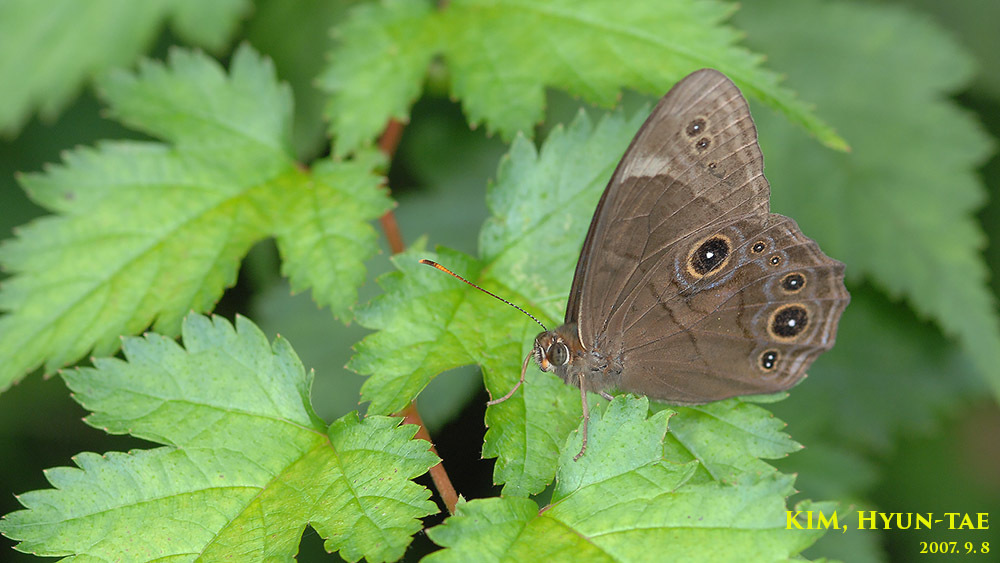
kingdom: Animalia
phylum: Arthropoda
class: Insecta
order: Lepidoptera
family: Nymphalidae
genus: Lethe
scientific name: Lethe diana
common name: Diana treebrown
